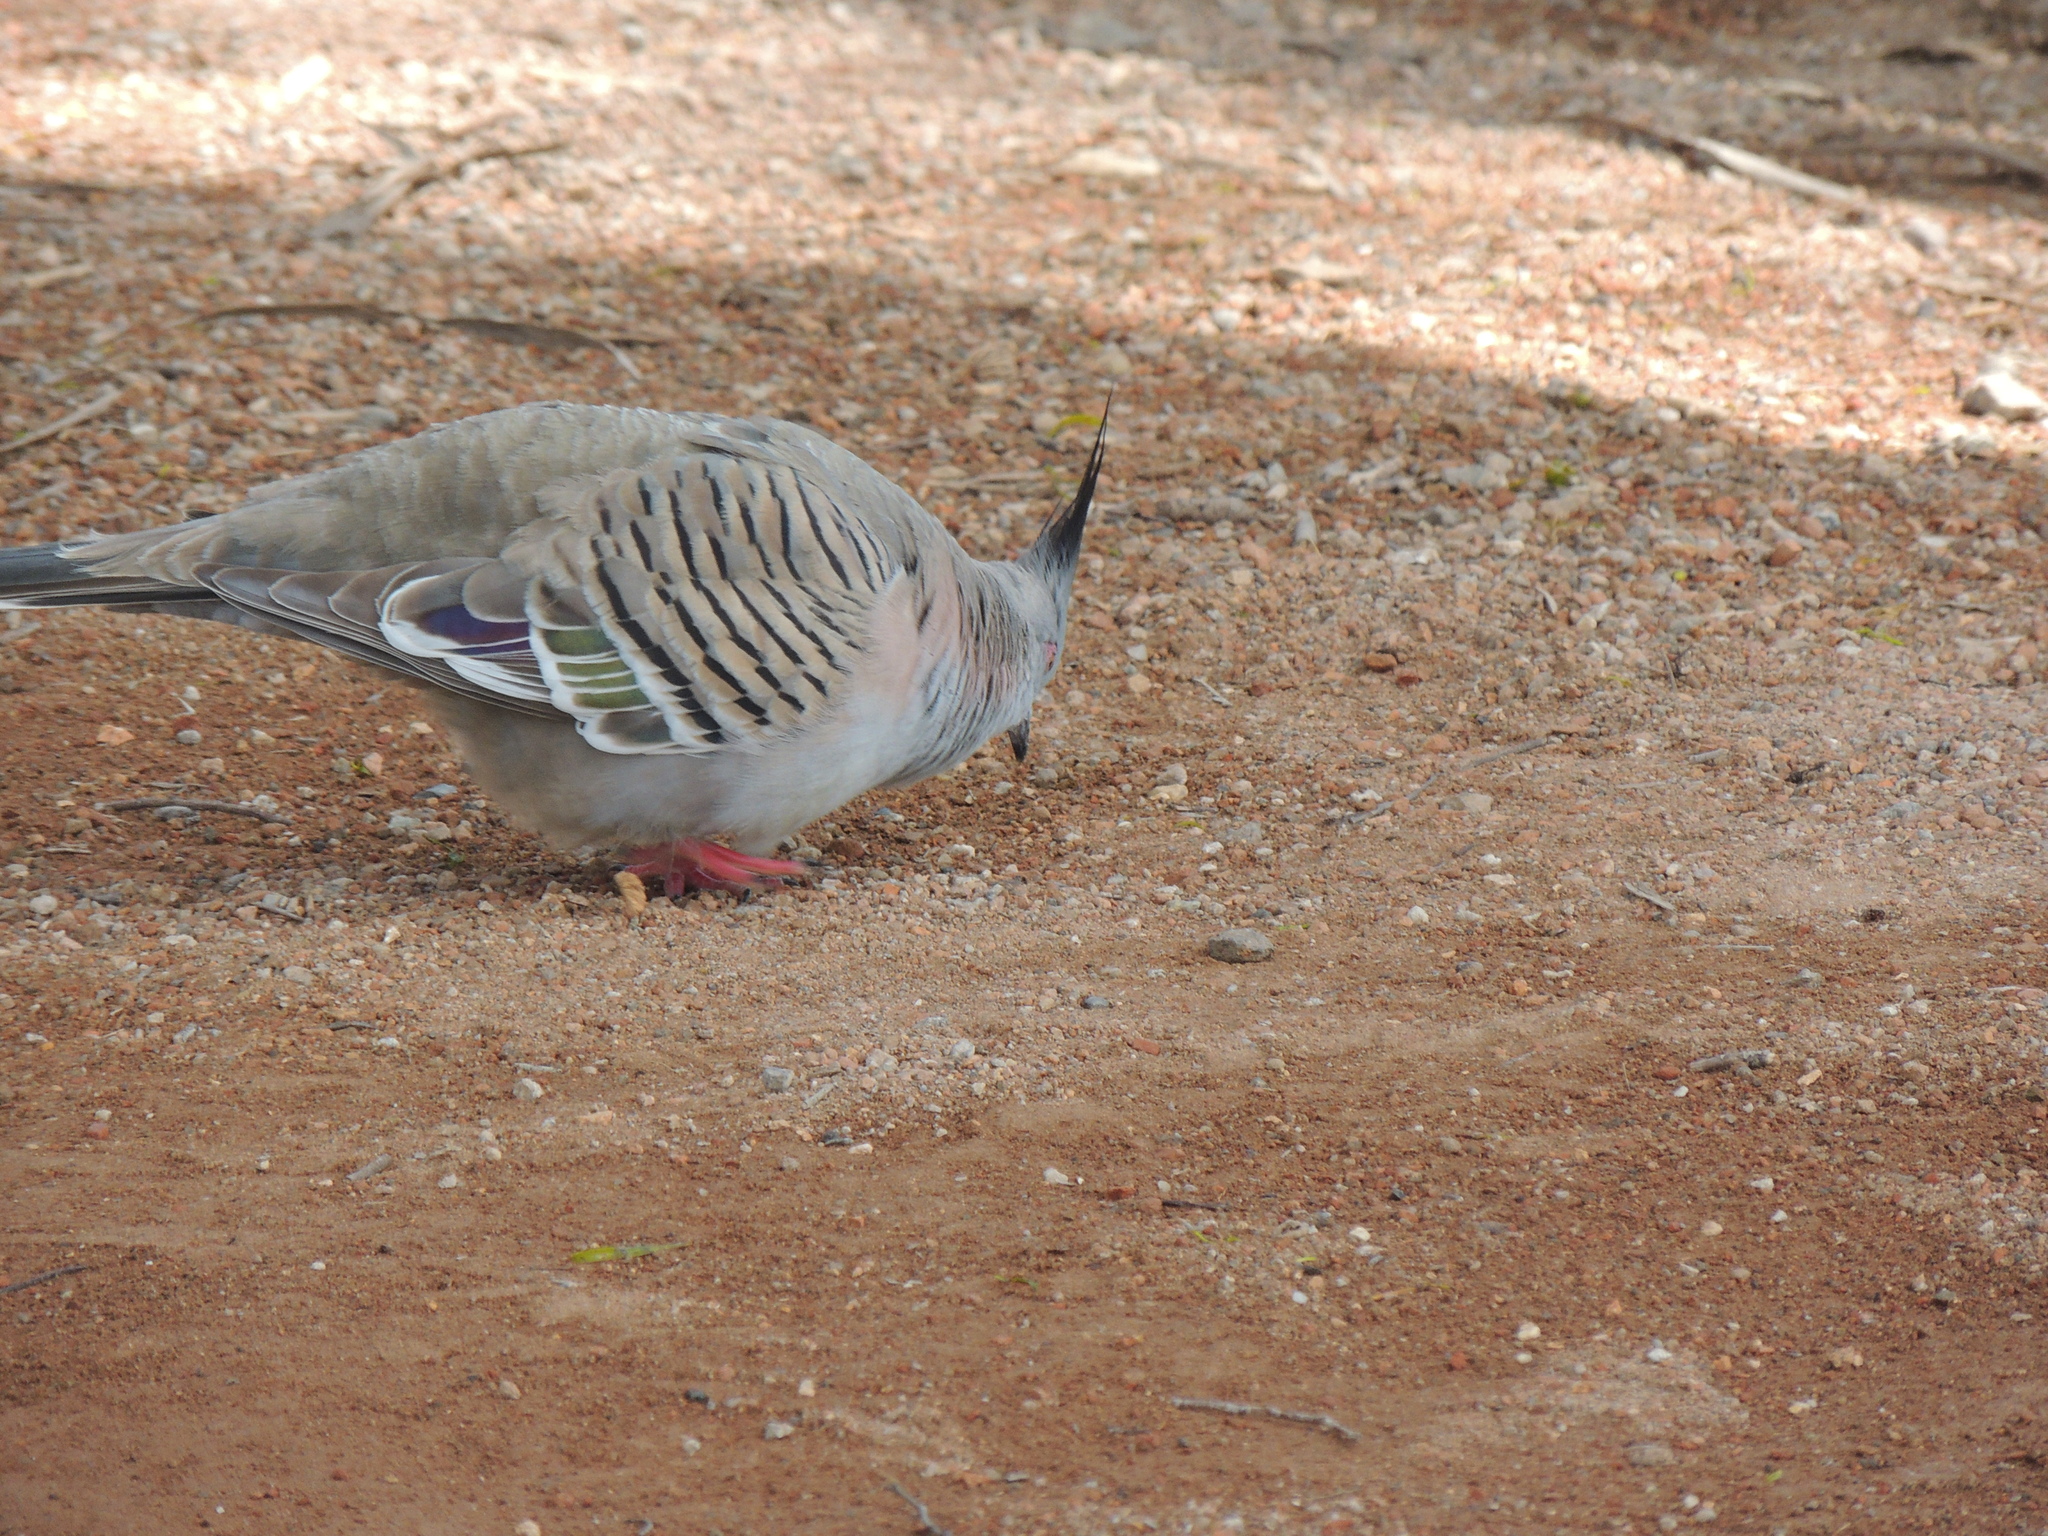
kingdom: Animalia
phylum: Chordata
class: Aves
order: Columbiformes
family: Columbidae
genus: Ocyphaps
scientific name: Ocyphaps lophotes
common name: Crested pigeon
